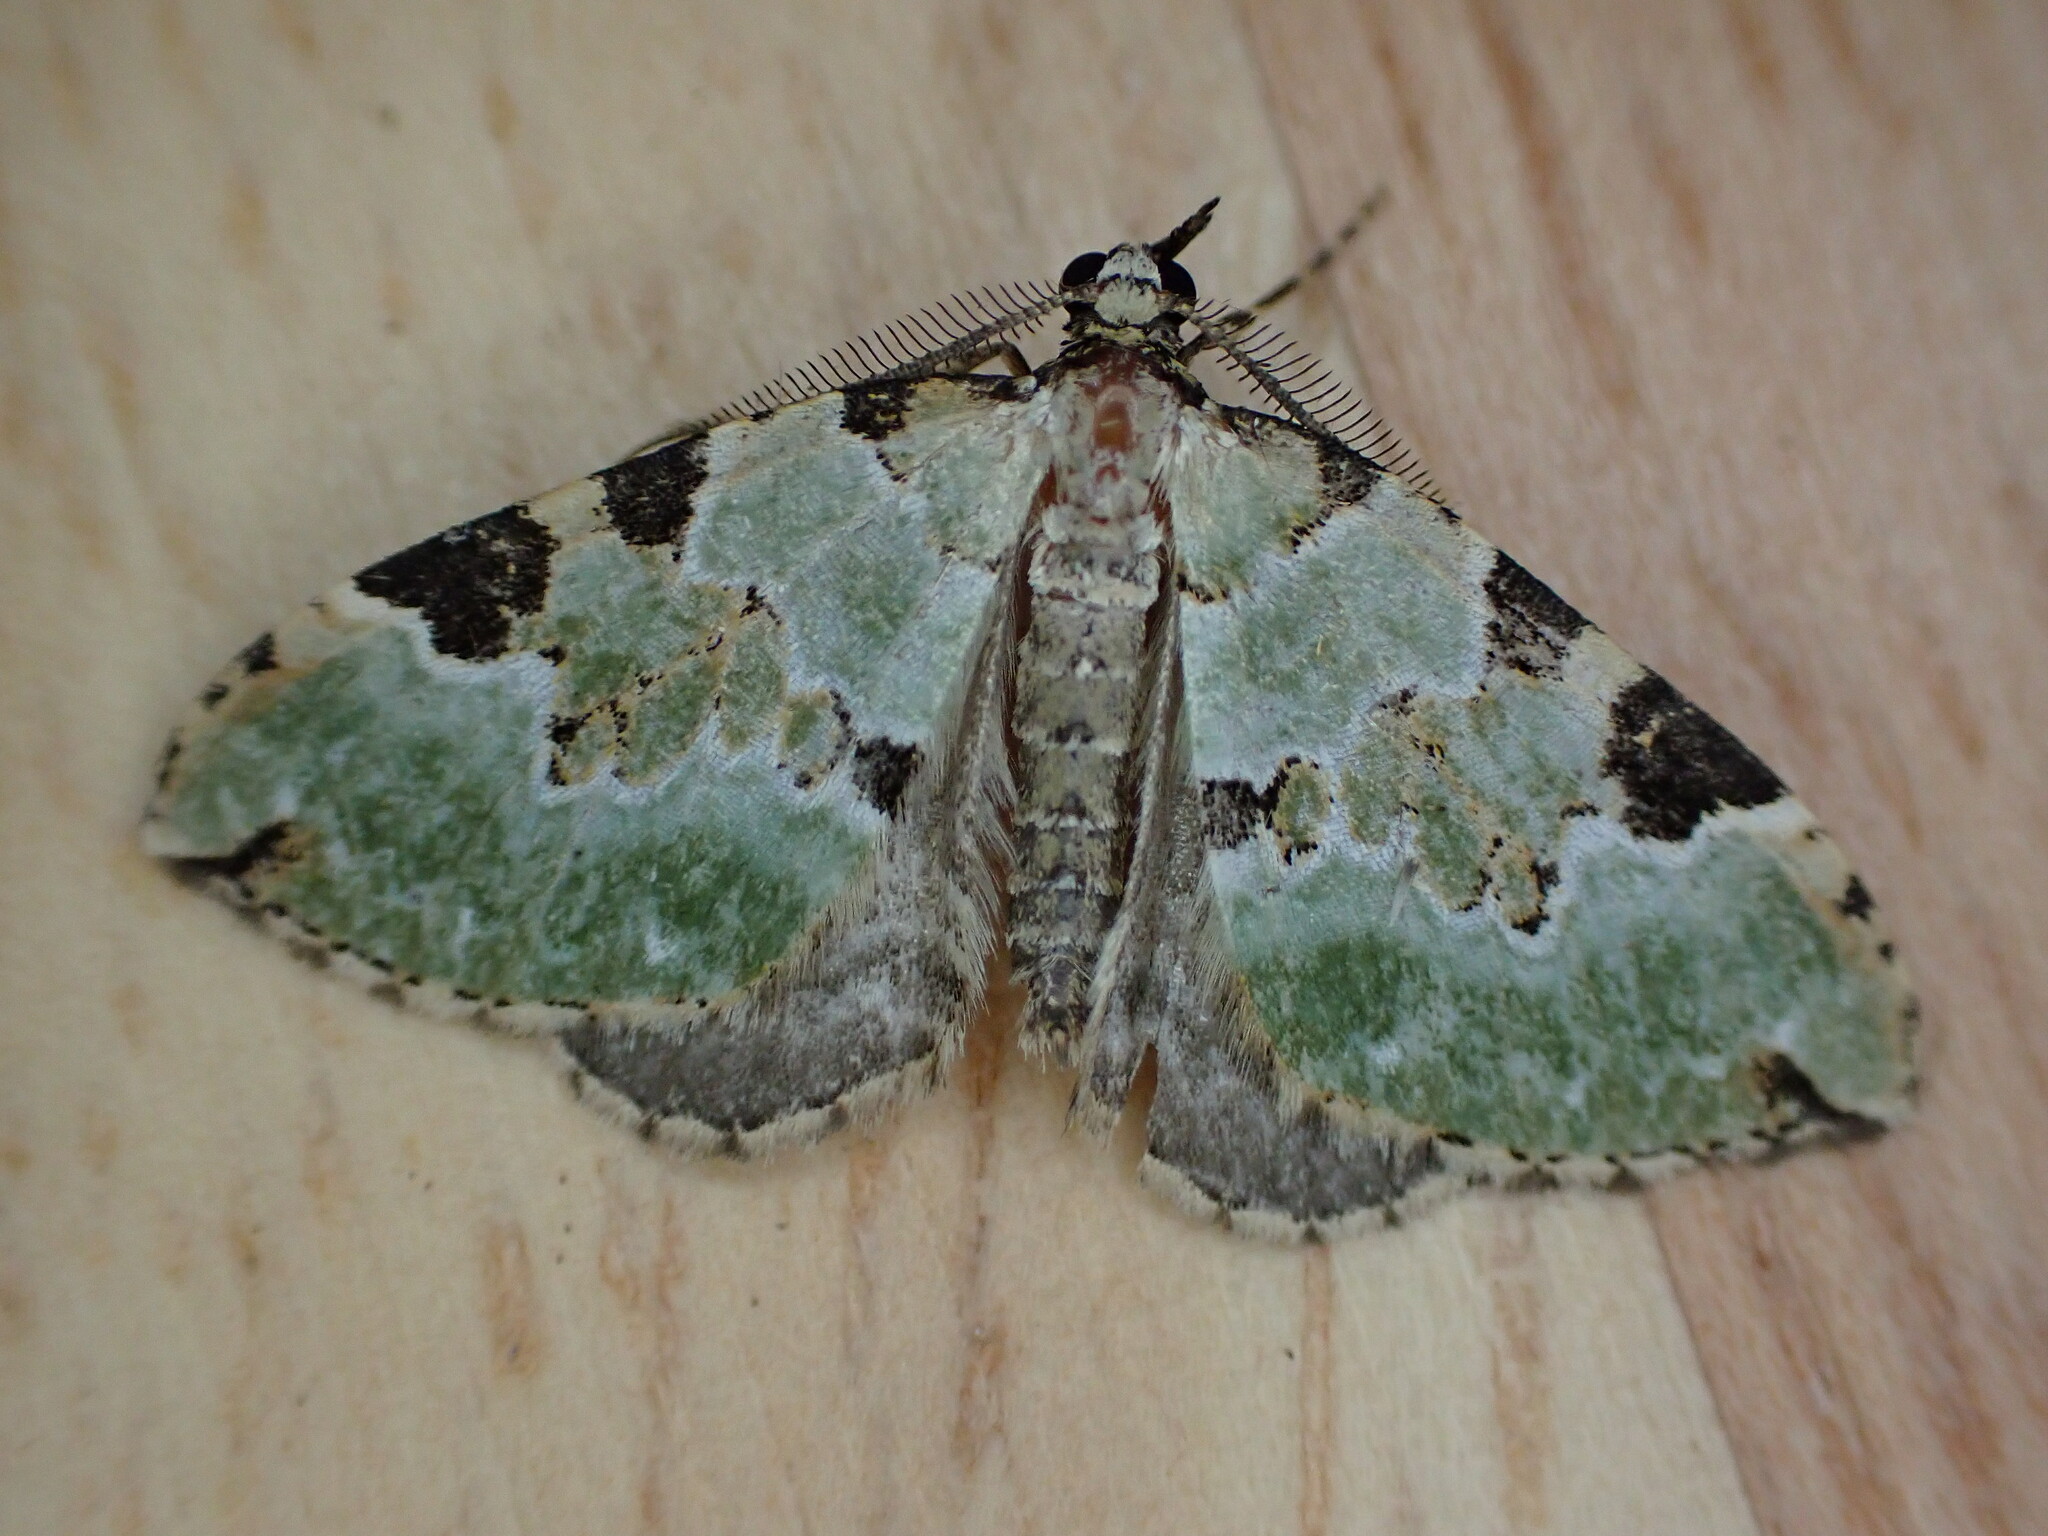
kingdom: Animalia
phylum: Arthropoda
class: Insecta
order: Lepidoptera
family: Geometridae
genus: Colostygia
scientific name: Colostygia pectinataria
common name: Green carpet
